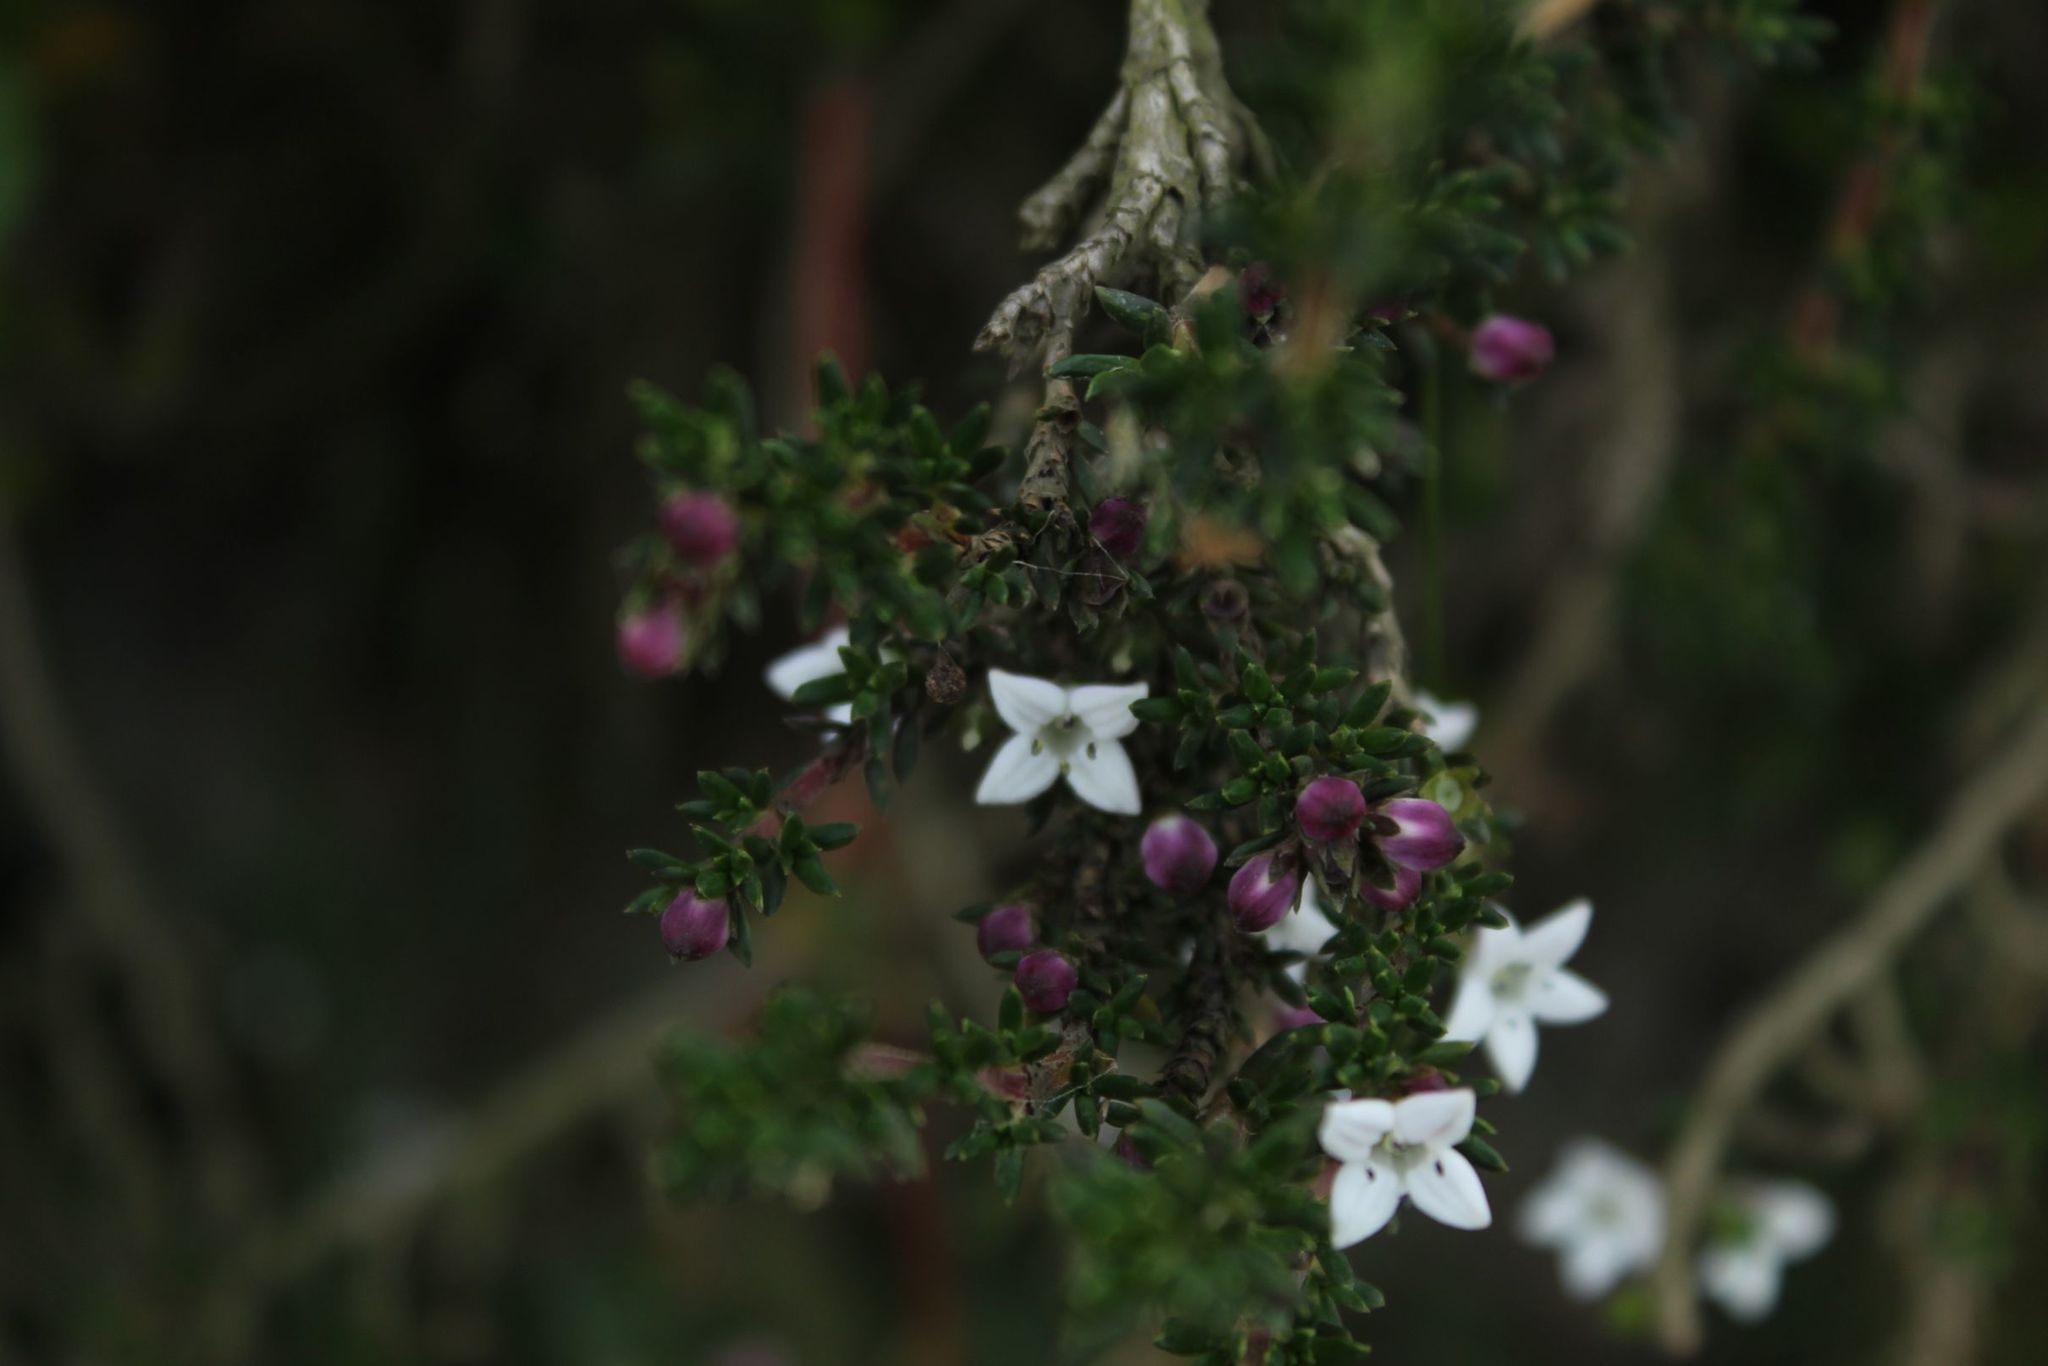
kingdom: Plantae
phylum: Tracheophyta
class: Magnoliopsida
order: Gentianales
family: Rubiaceae
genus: Arcytophyllum
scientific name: Arcytophyllum nitidum
